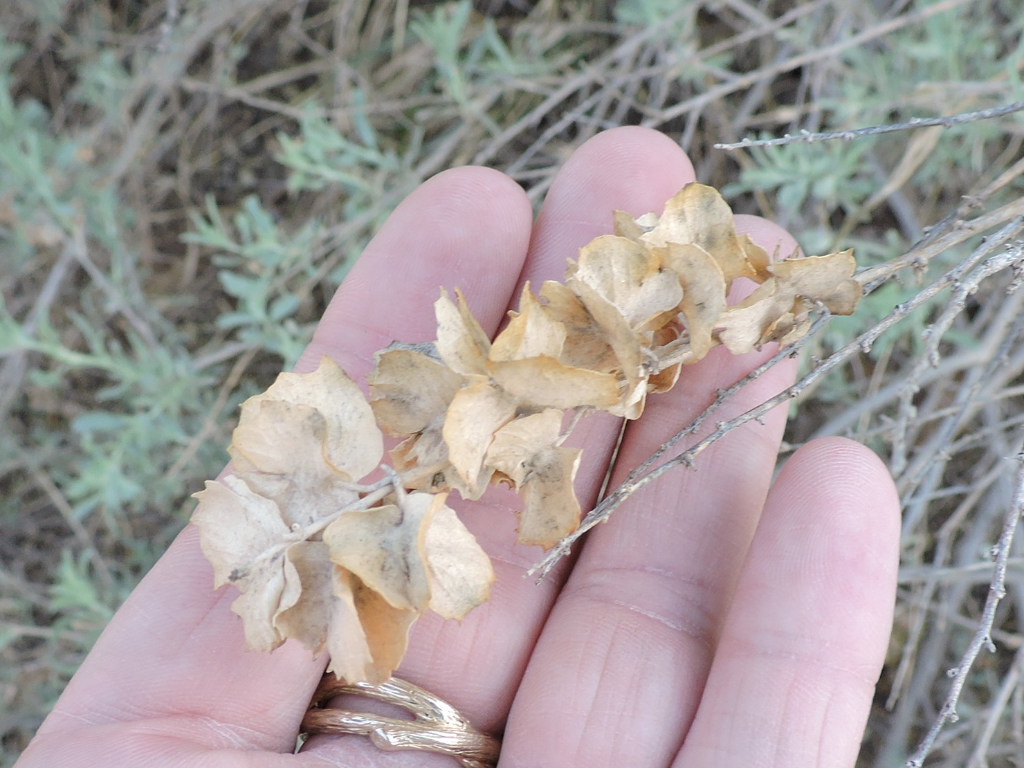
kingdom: Plantae
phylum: Tracheophyta
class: Magnoliopsida
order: Caryophyllales
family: Amaranthaceae
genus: Atriplex
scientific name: Atriplex canescens
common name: Four-wing saltbush
